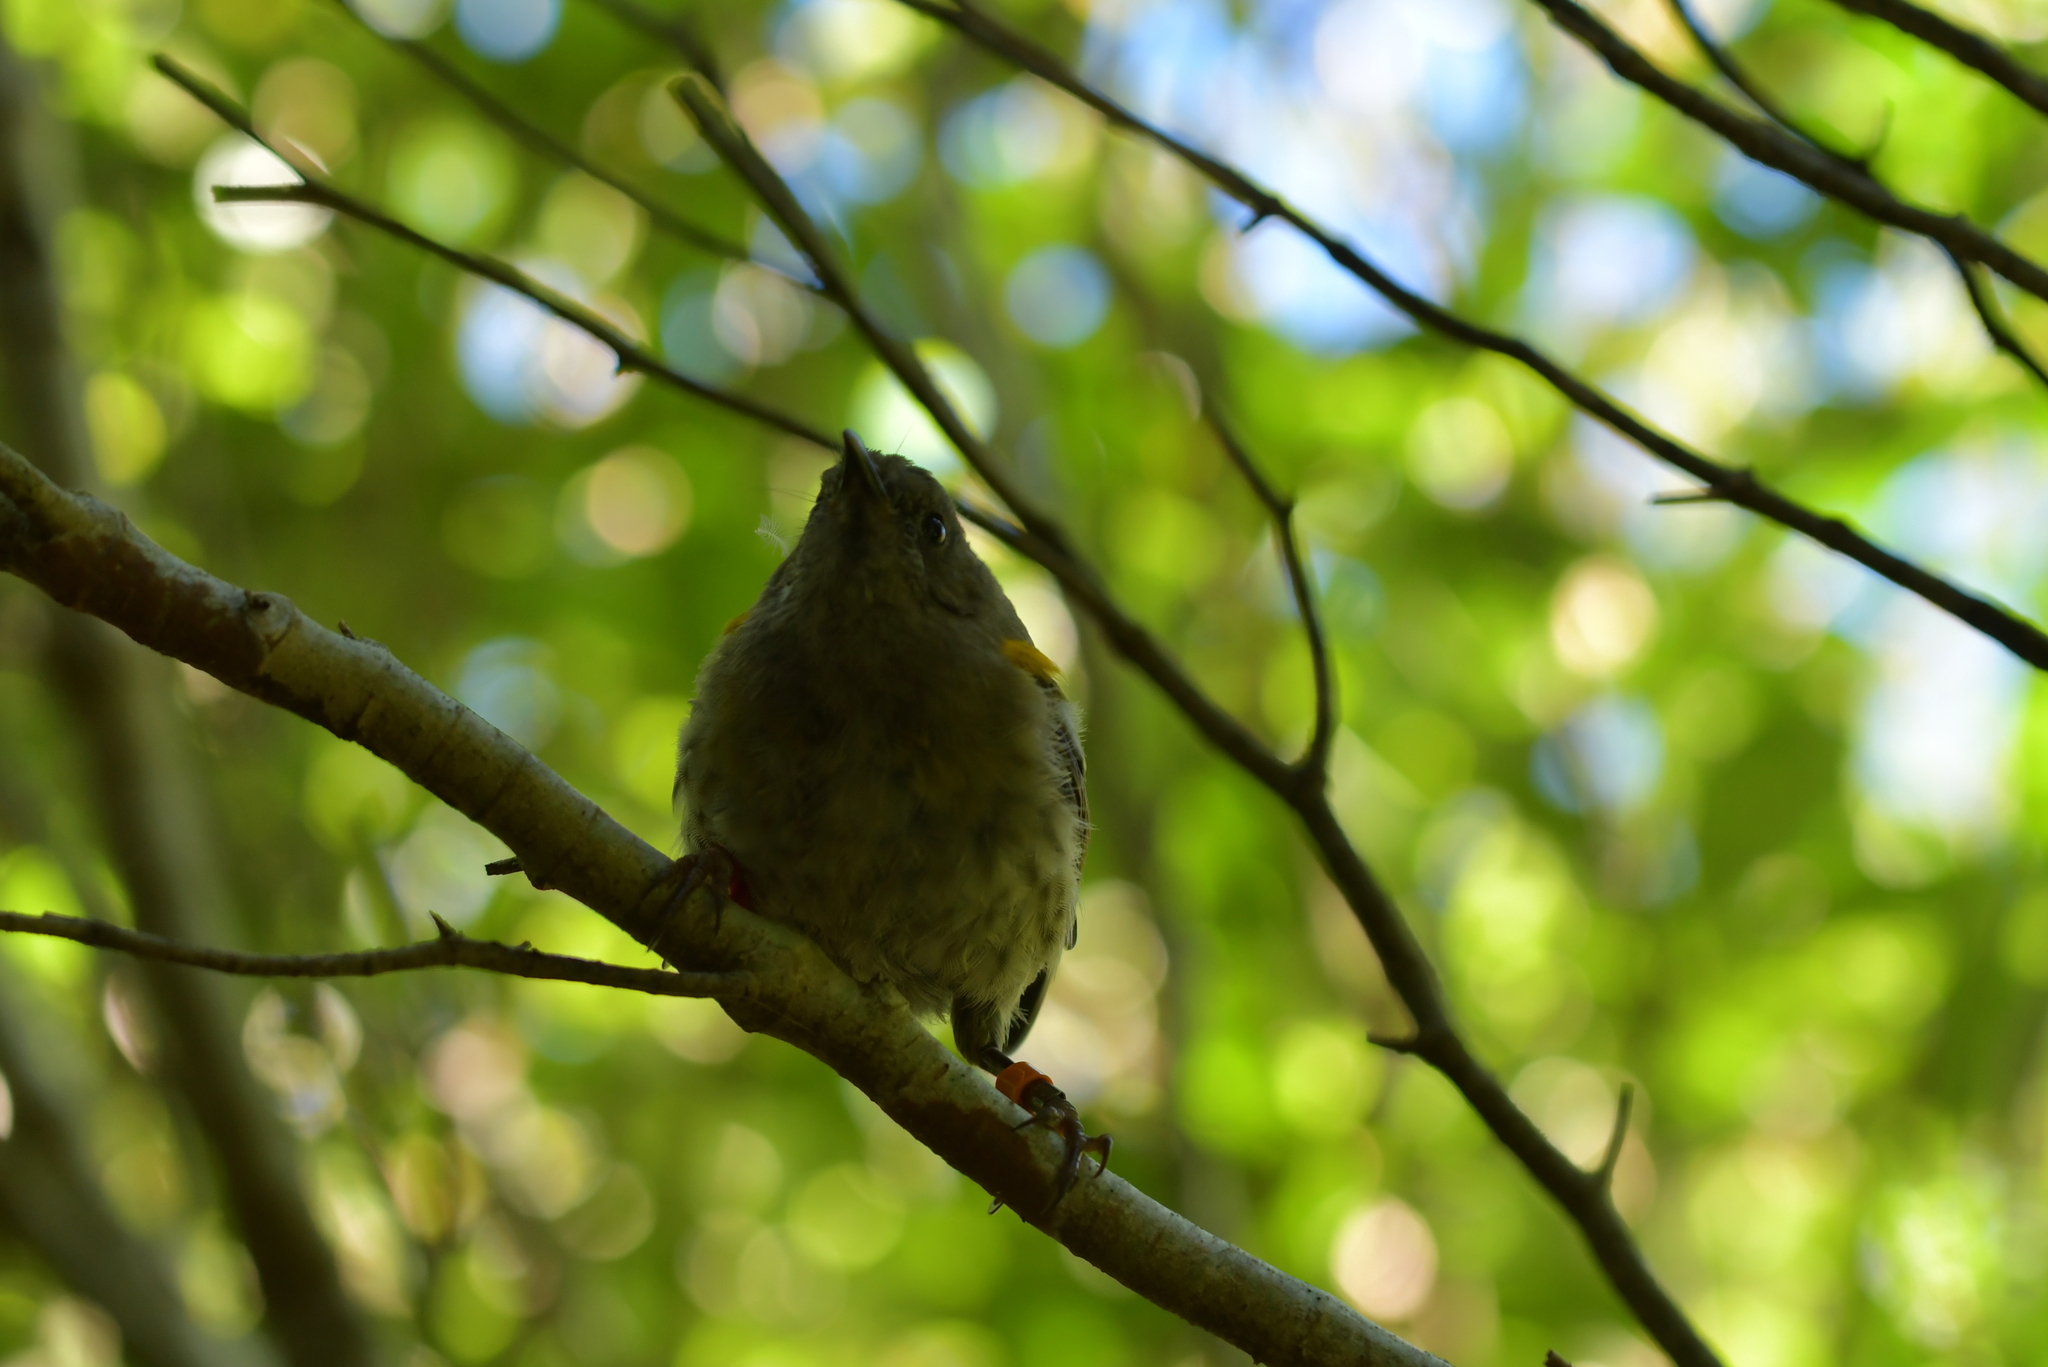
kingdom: Animalia
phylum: Chordata
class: Aves
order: Passeriformes
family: Notiomystidae
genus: Notiomystis
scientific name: Notiomystis cincta
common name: Stitchbird
